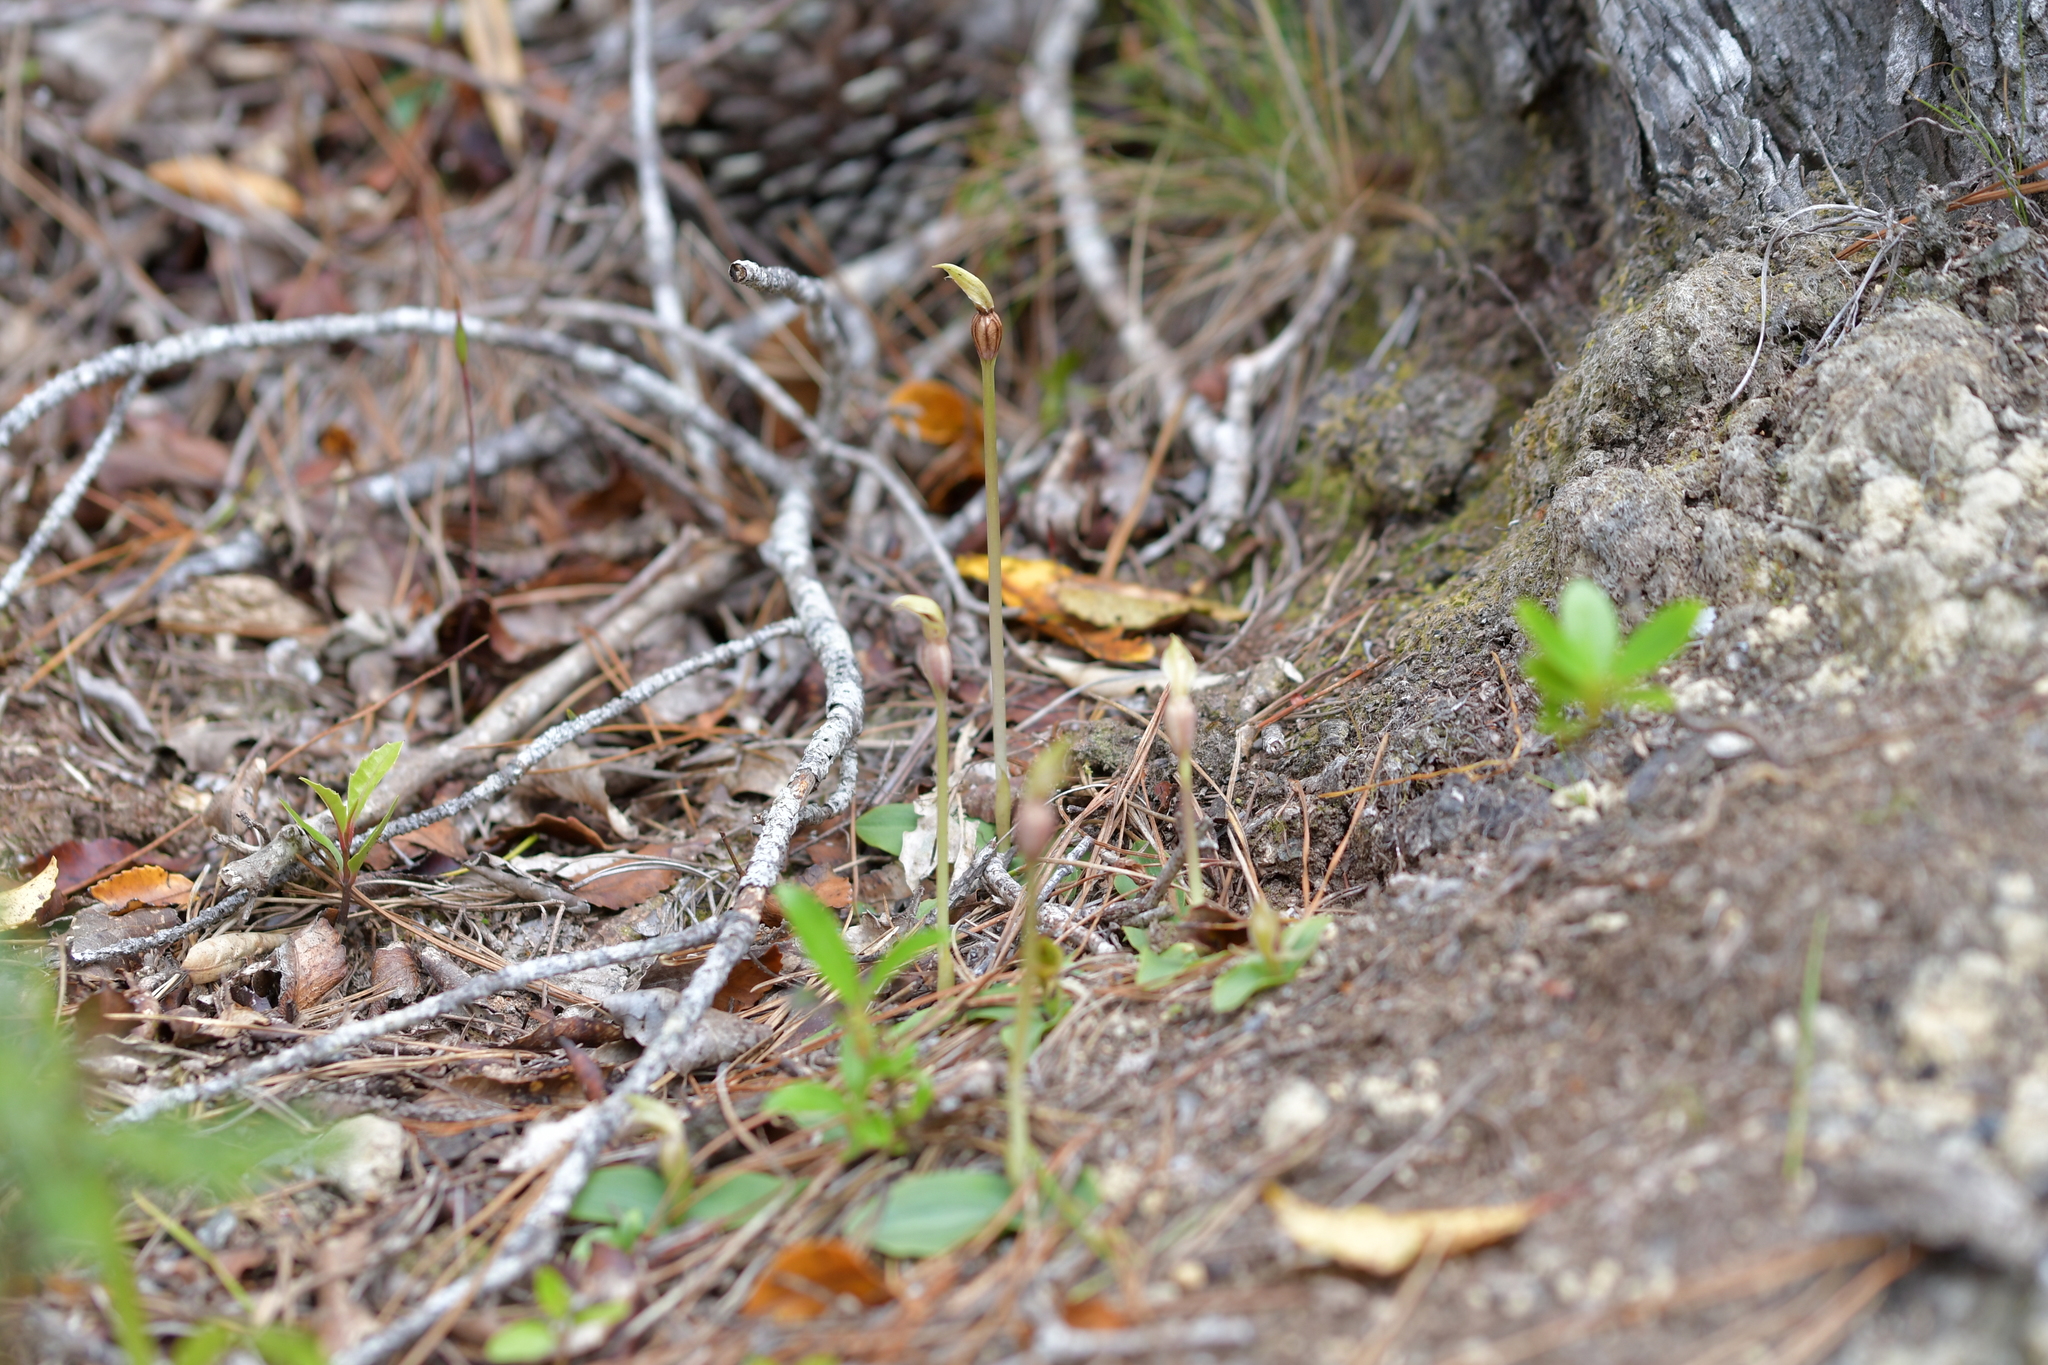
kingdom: Plantae
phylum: Tracheophyta
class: Liliopsida
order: Asparagales
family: Orchidaceae
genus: Chiloglottis
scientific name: Chiloglottis cornuta
